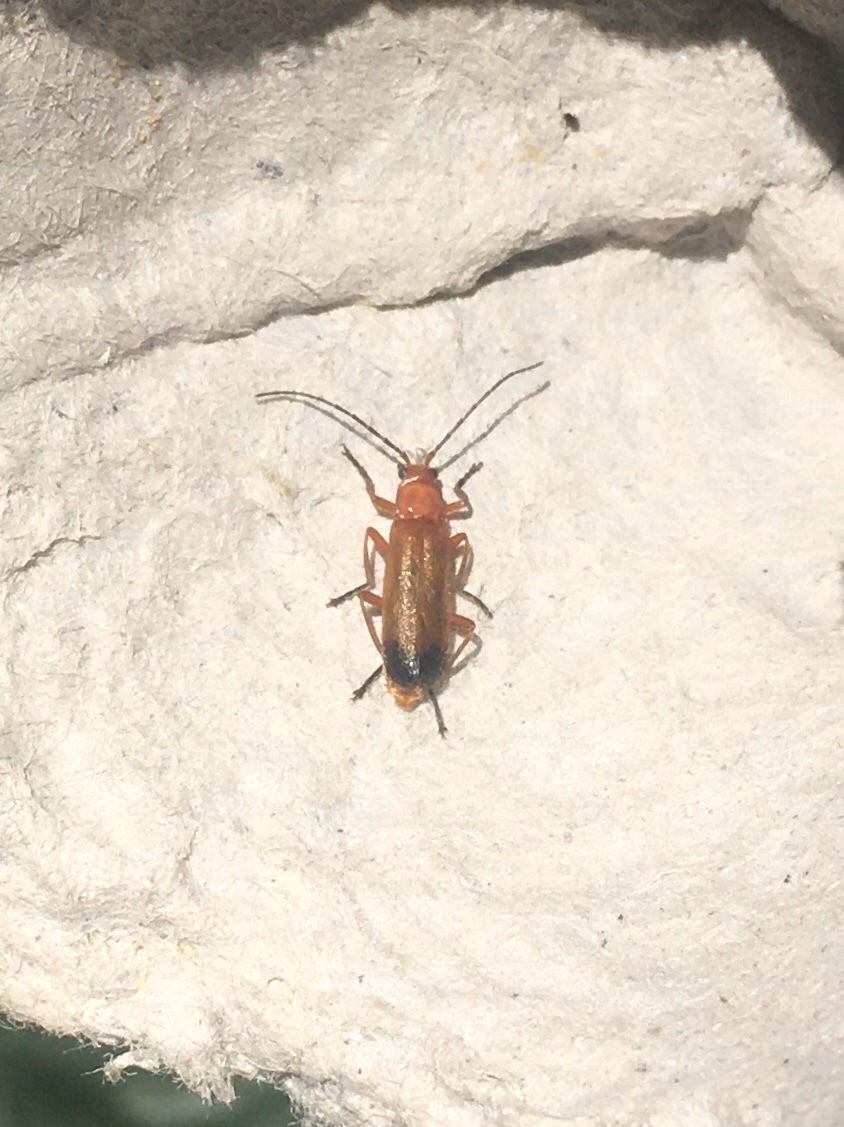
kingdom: Animalia
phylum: Arthropoda
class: Insecta
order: Coleoptera
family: Cantharidae
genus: Rhagonycha
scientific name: Rhagonycha fulva
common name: Common red soldier beetle
